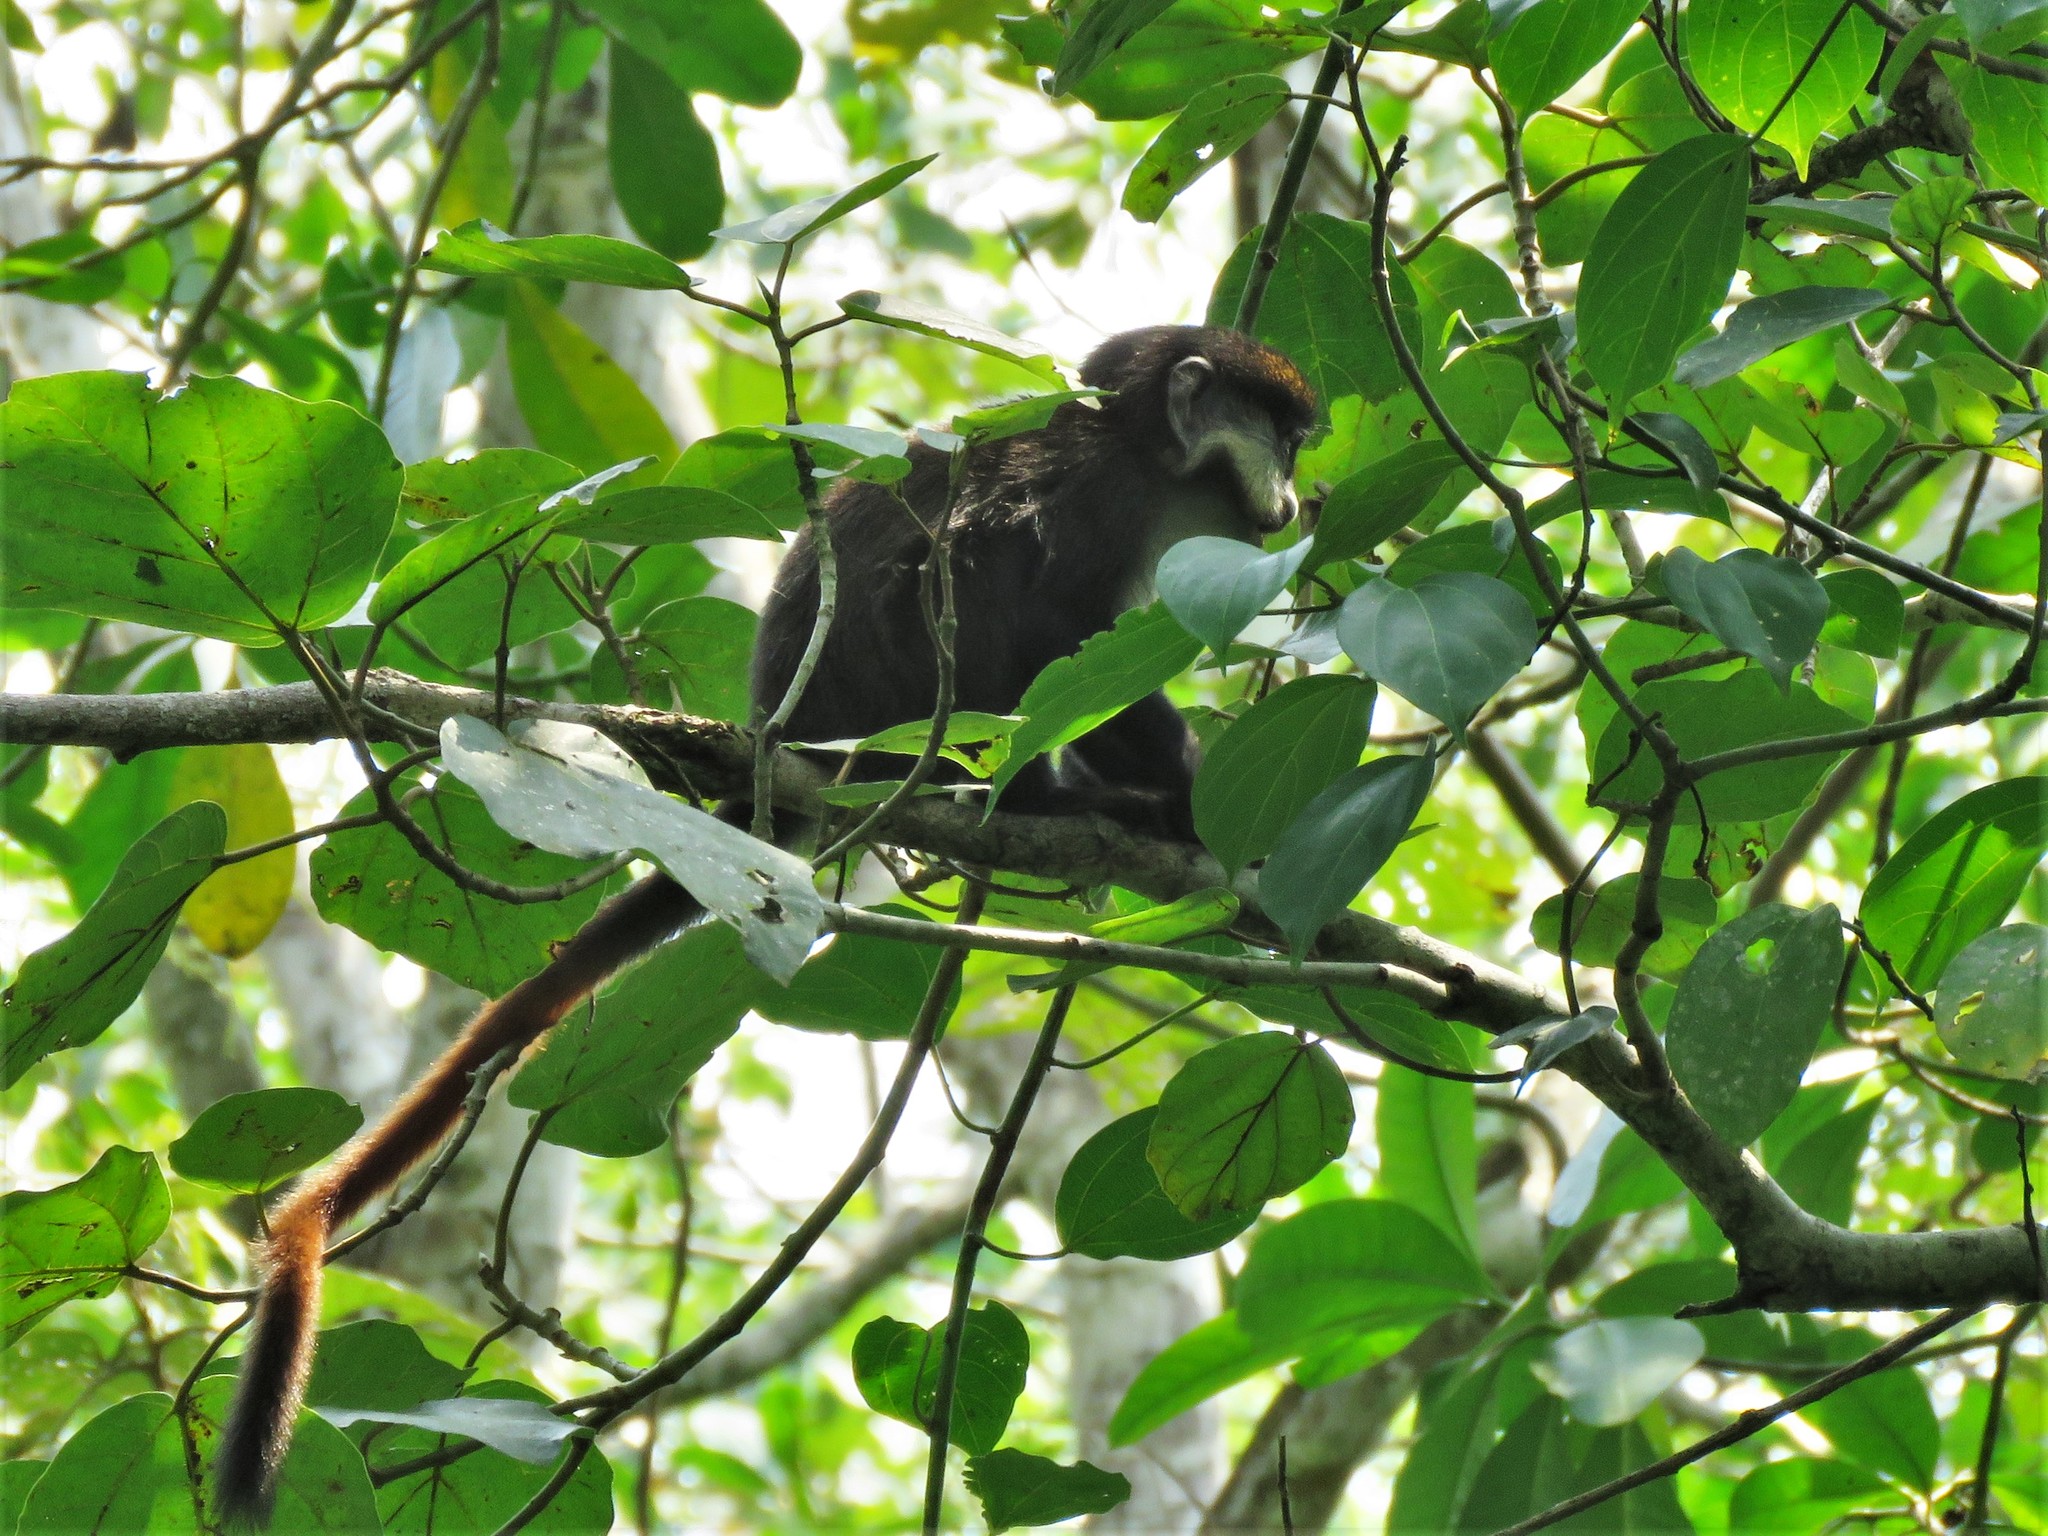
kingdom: Animalia
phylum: Chordata
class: Mammalia
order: Primates
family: Cercopithecidae
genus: Cercopithecus
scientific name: Cercopithecus ascanius
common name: Red-tailed monkey
